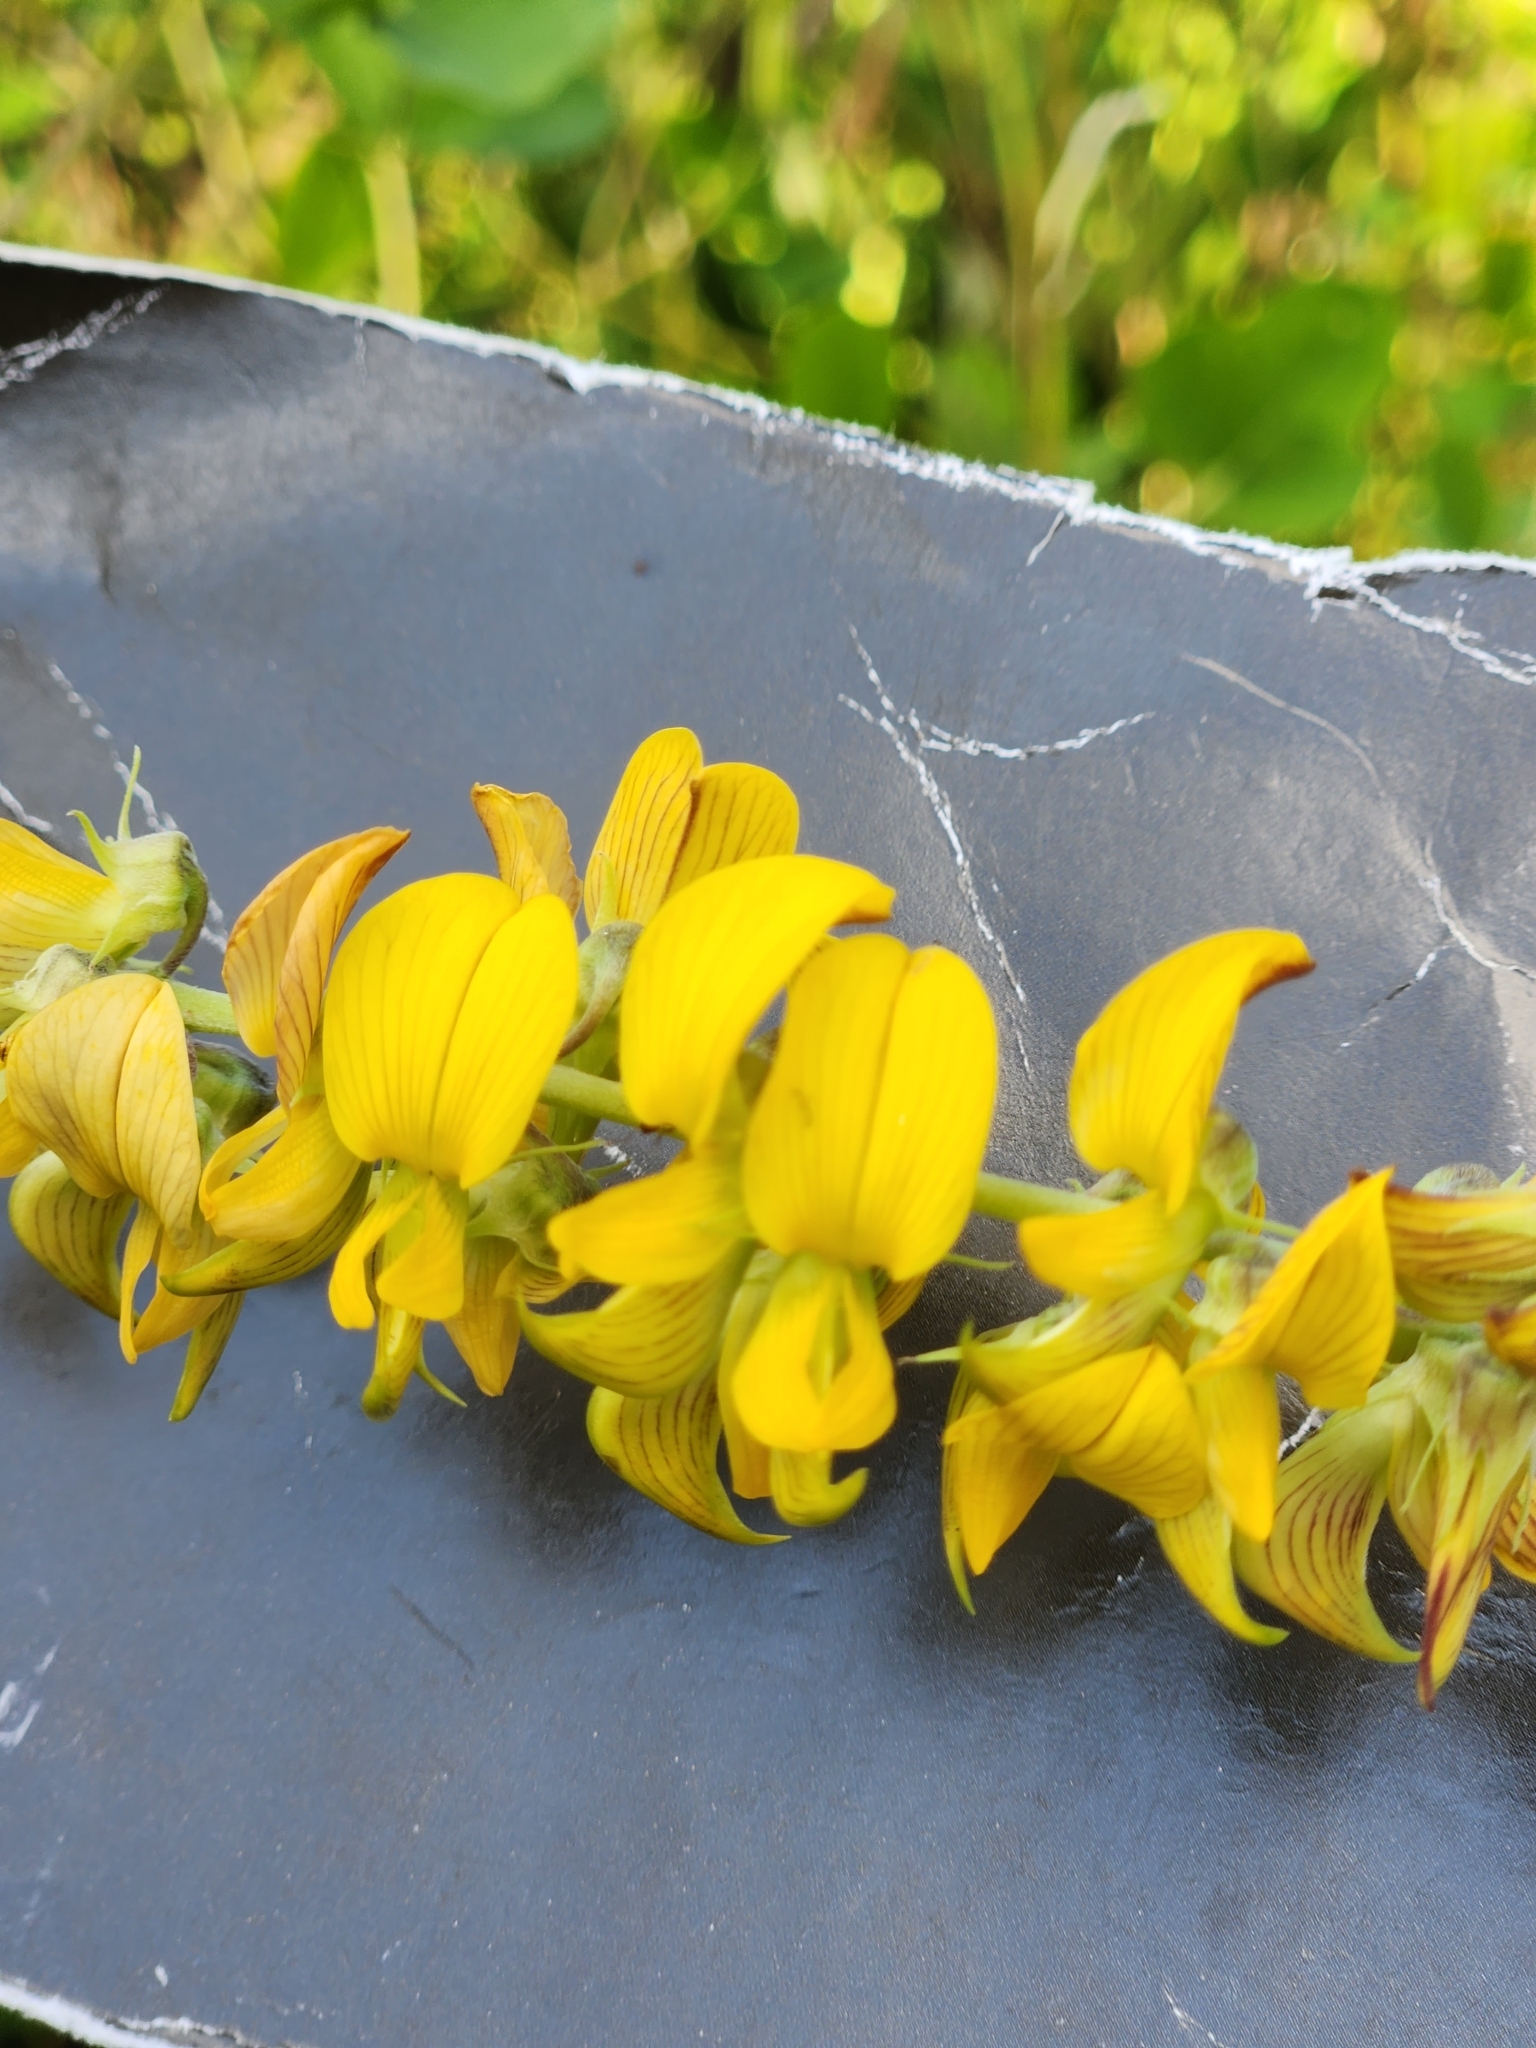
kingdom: Plantae
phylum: Tracheophyta
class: Magnoliopsida
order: Fabales
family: Fabaceae
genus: Crotalaria
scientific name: Crotalaria pallida
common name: Smooth rattlebox
